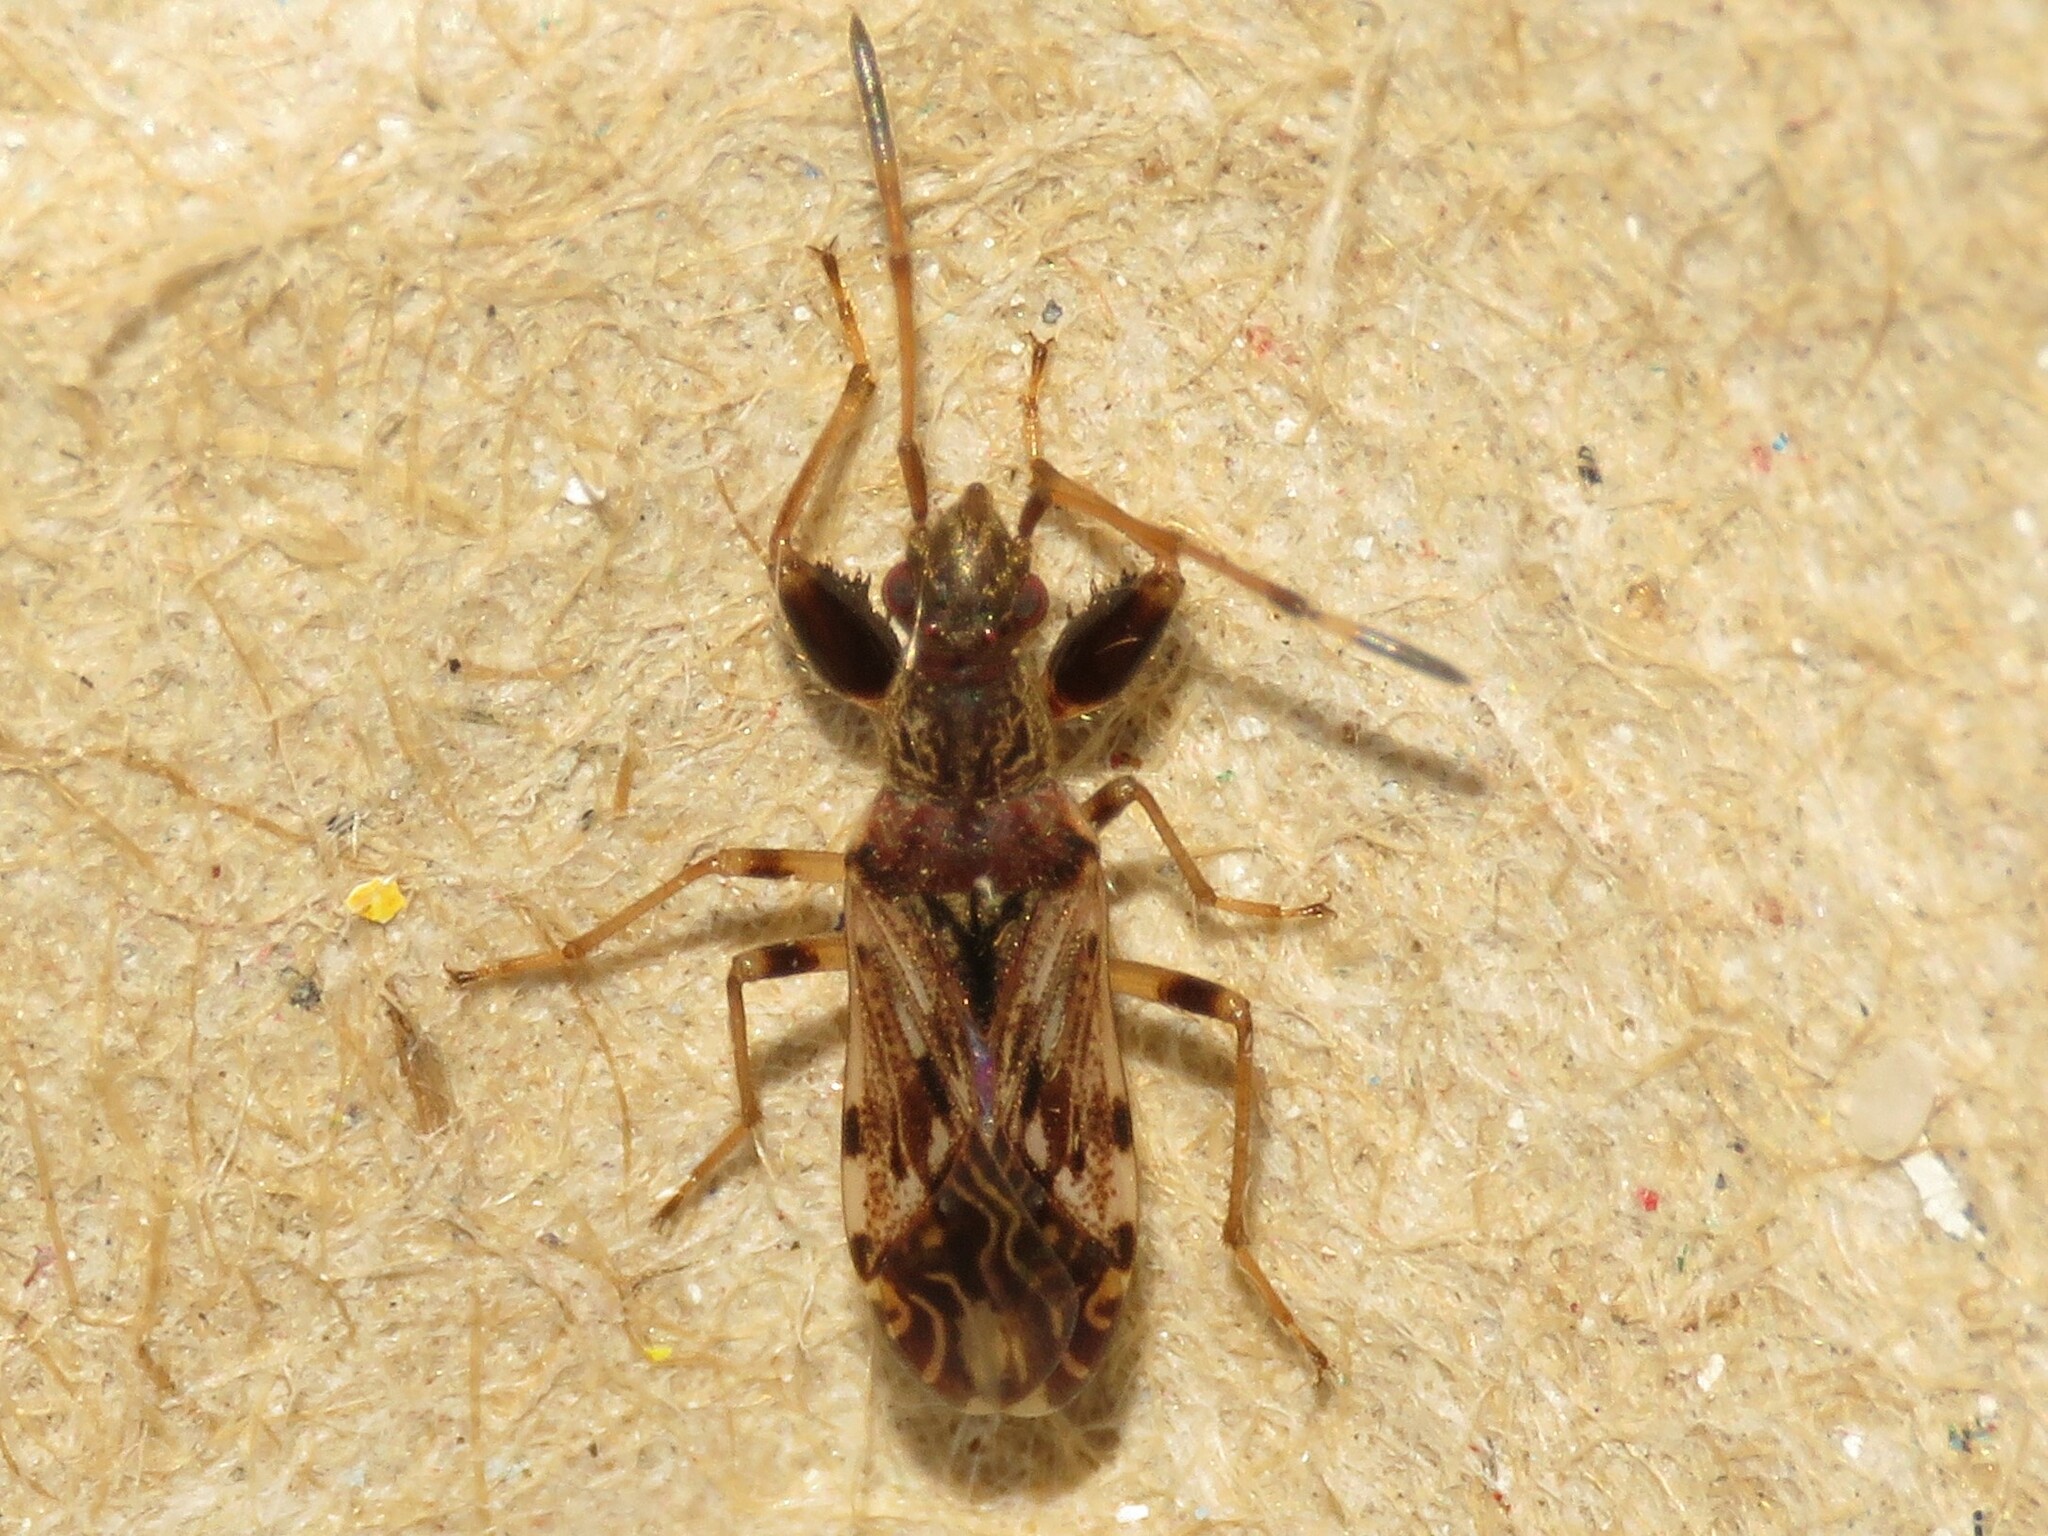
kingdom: Animalia
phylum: Arthropoda
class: Insecta
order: Hemiptera
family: Rhyparochromidae
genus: Neopamera
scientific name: Neopamera albocincta
